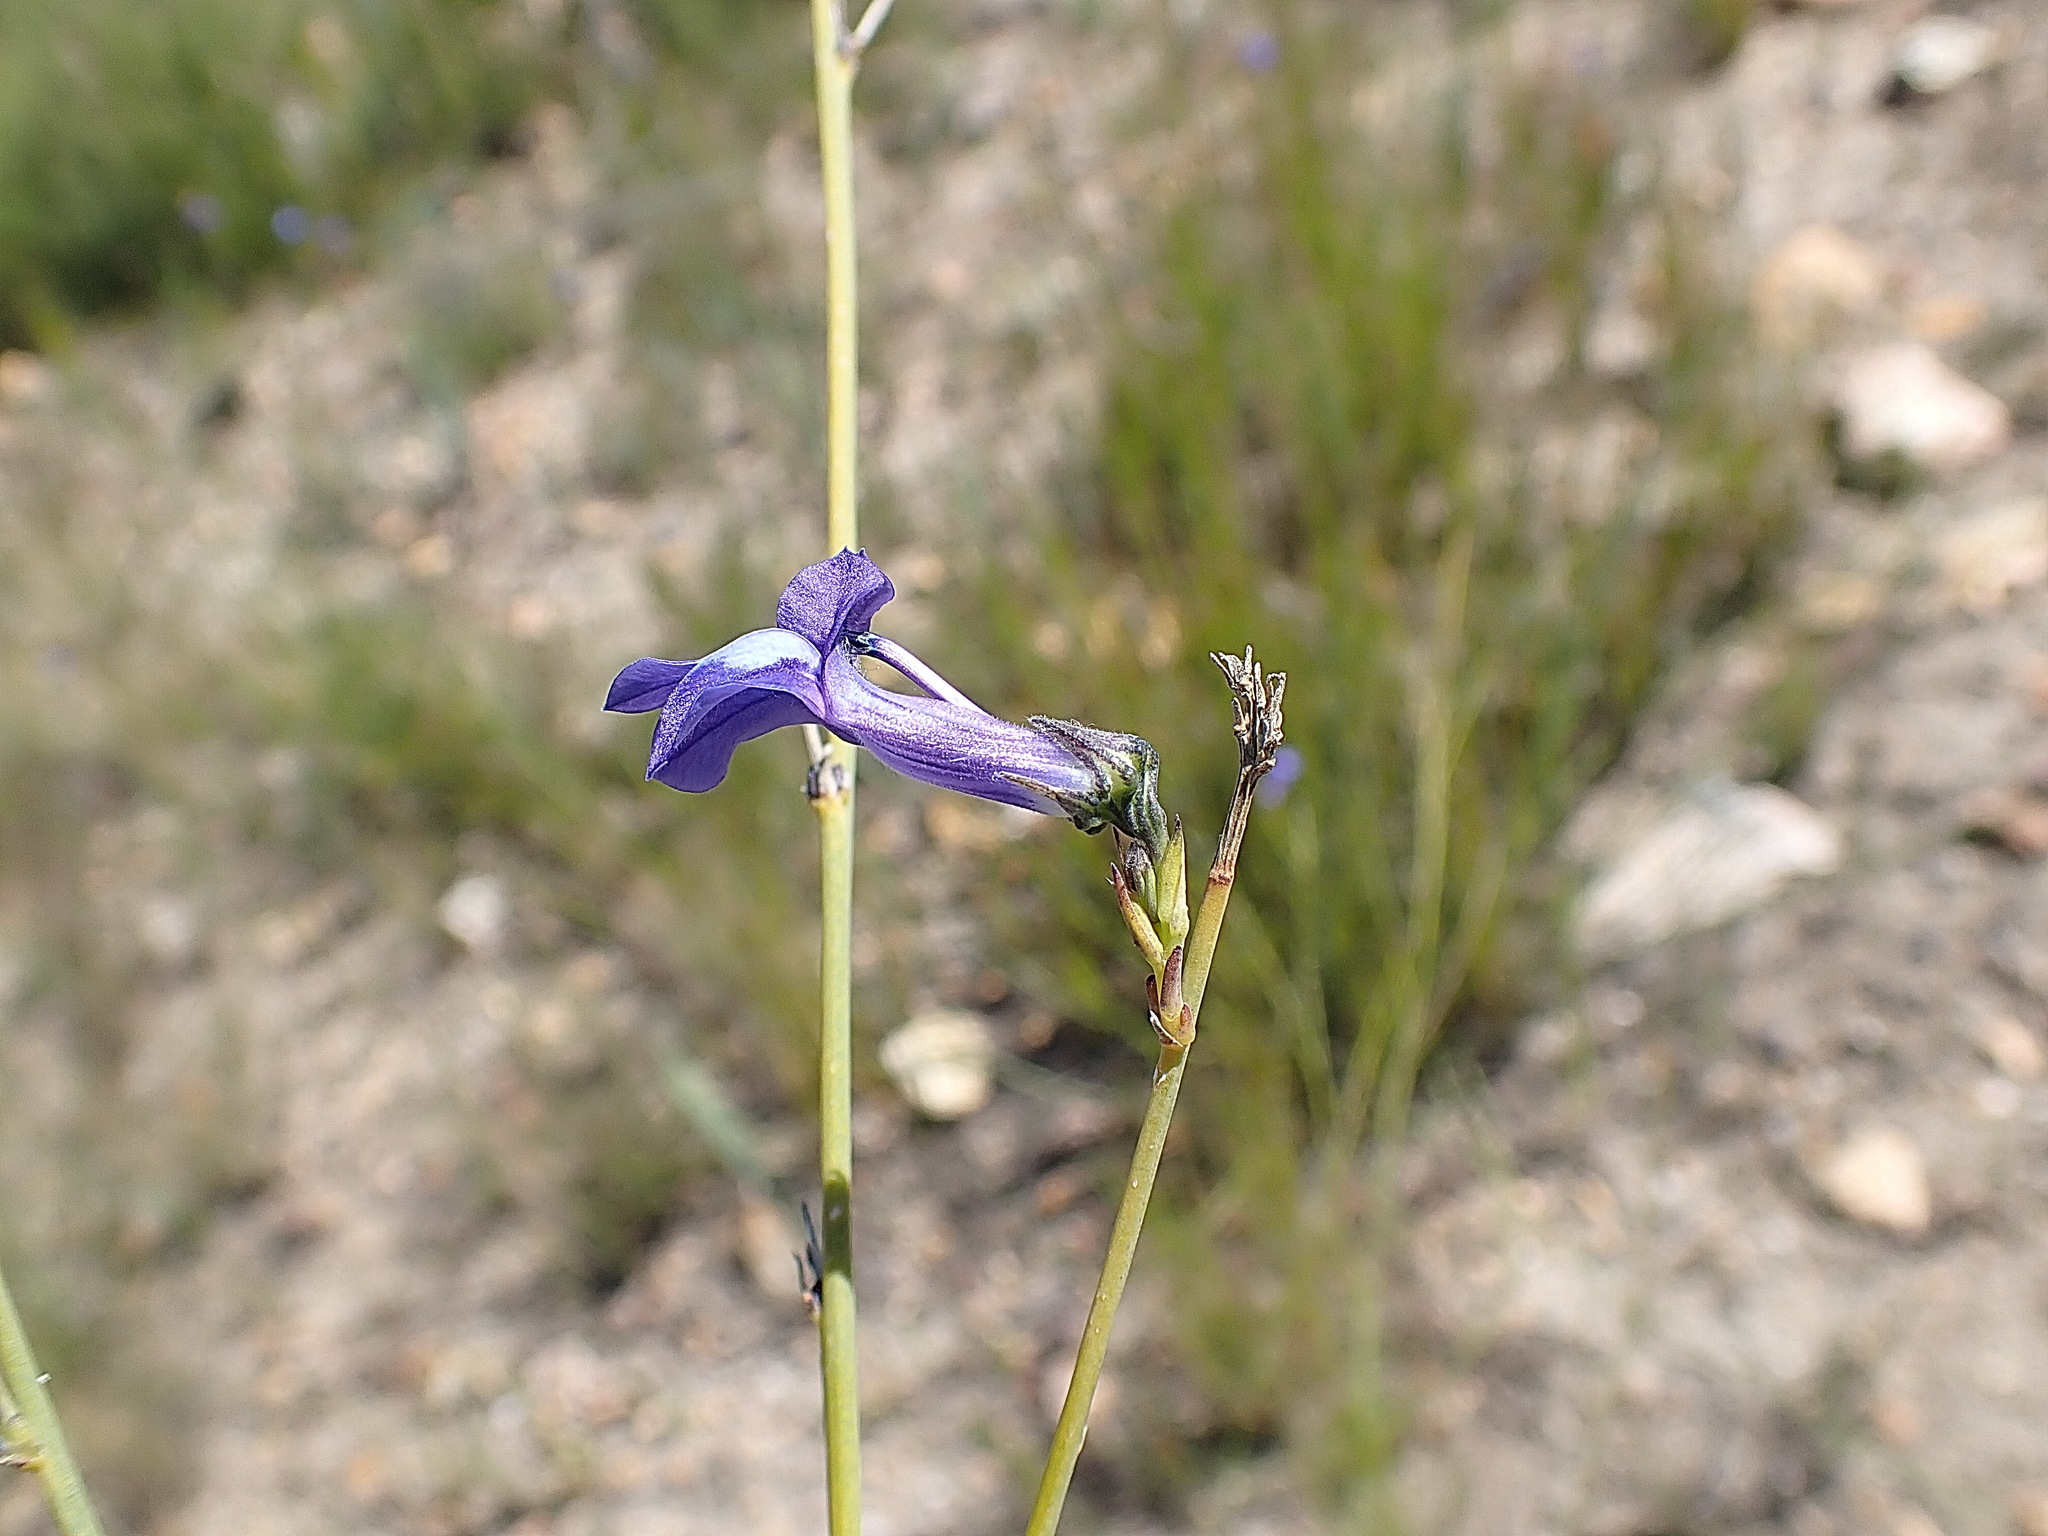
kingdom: Plantae
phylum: Tracheophyta
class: Magnoliopsida
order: Asterales
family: Campanulaceae
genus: Lobelia
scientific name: Lobelia linearis
